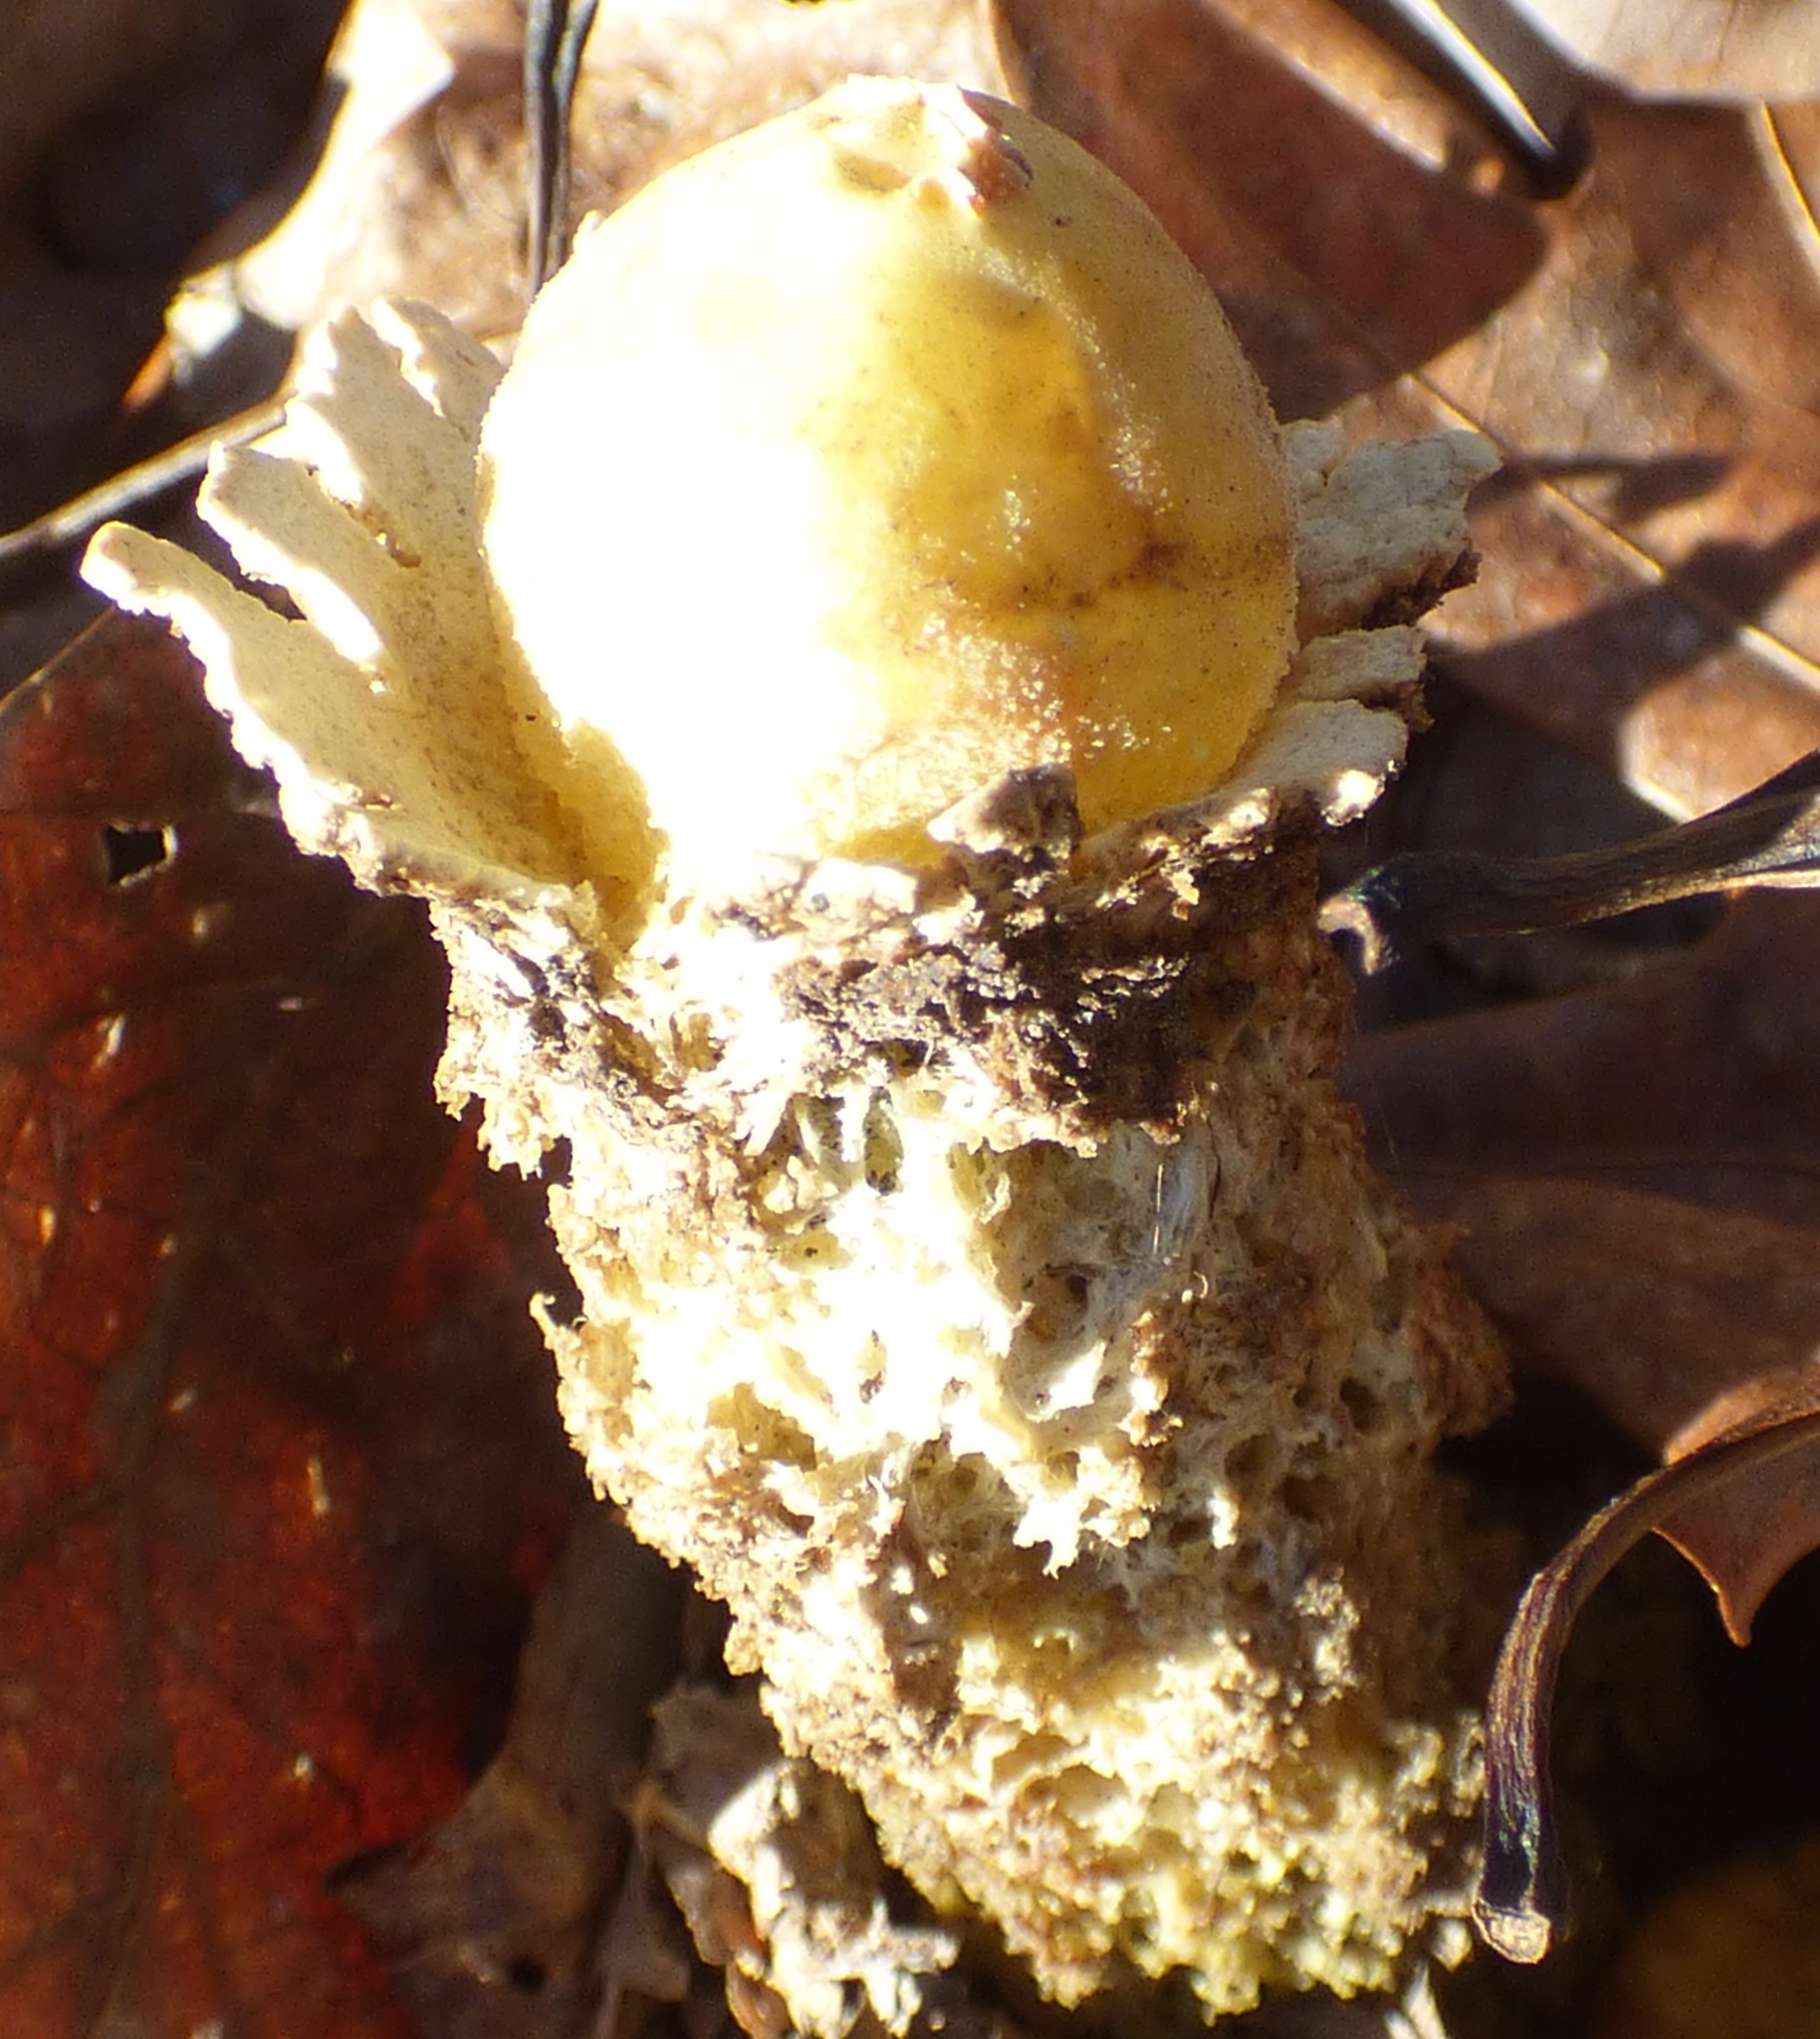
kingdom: Fungi
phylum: Basidiomycota
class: Agaricomycetes
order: Boletales
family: Calostomataceae
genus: Calostoma
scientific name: Calostoma lutescens
